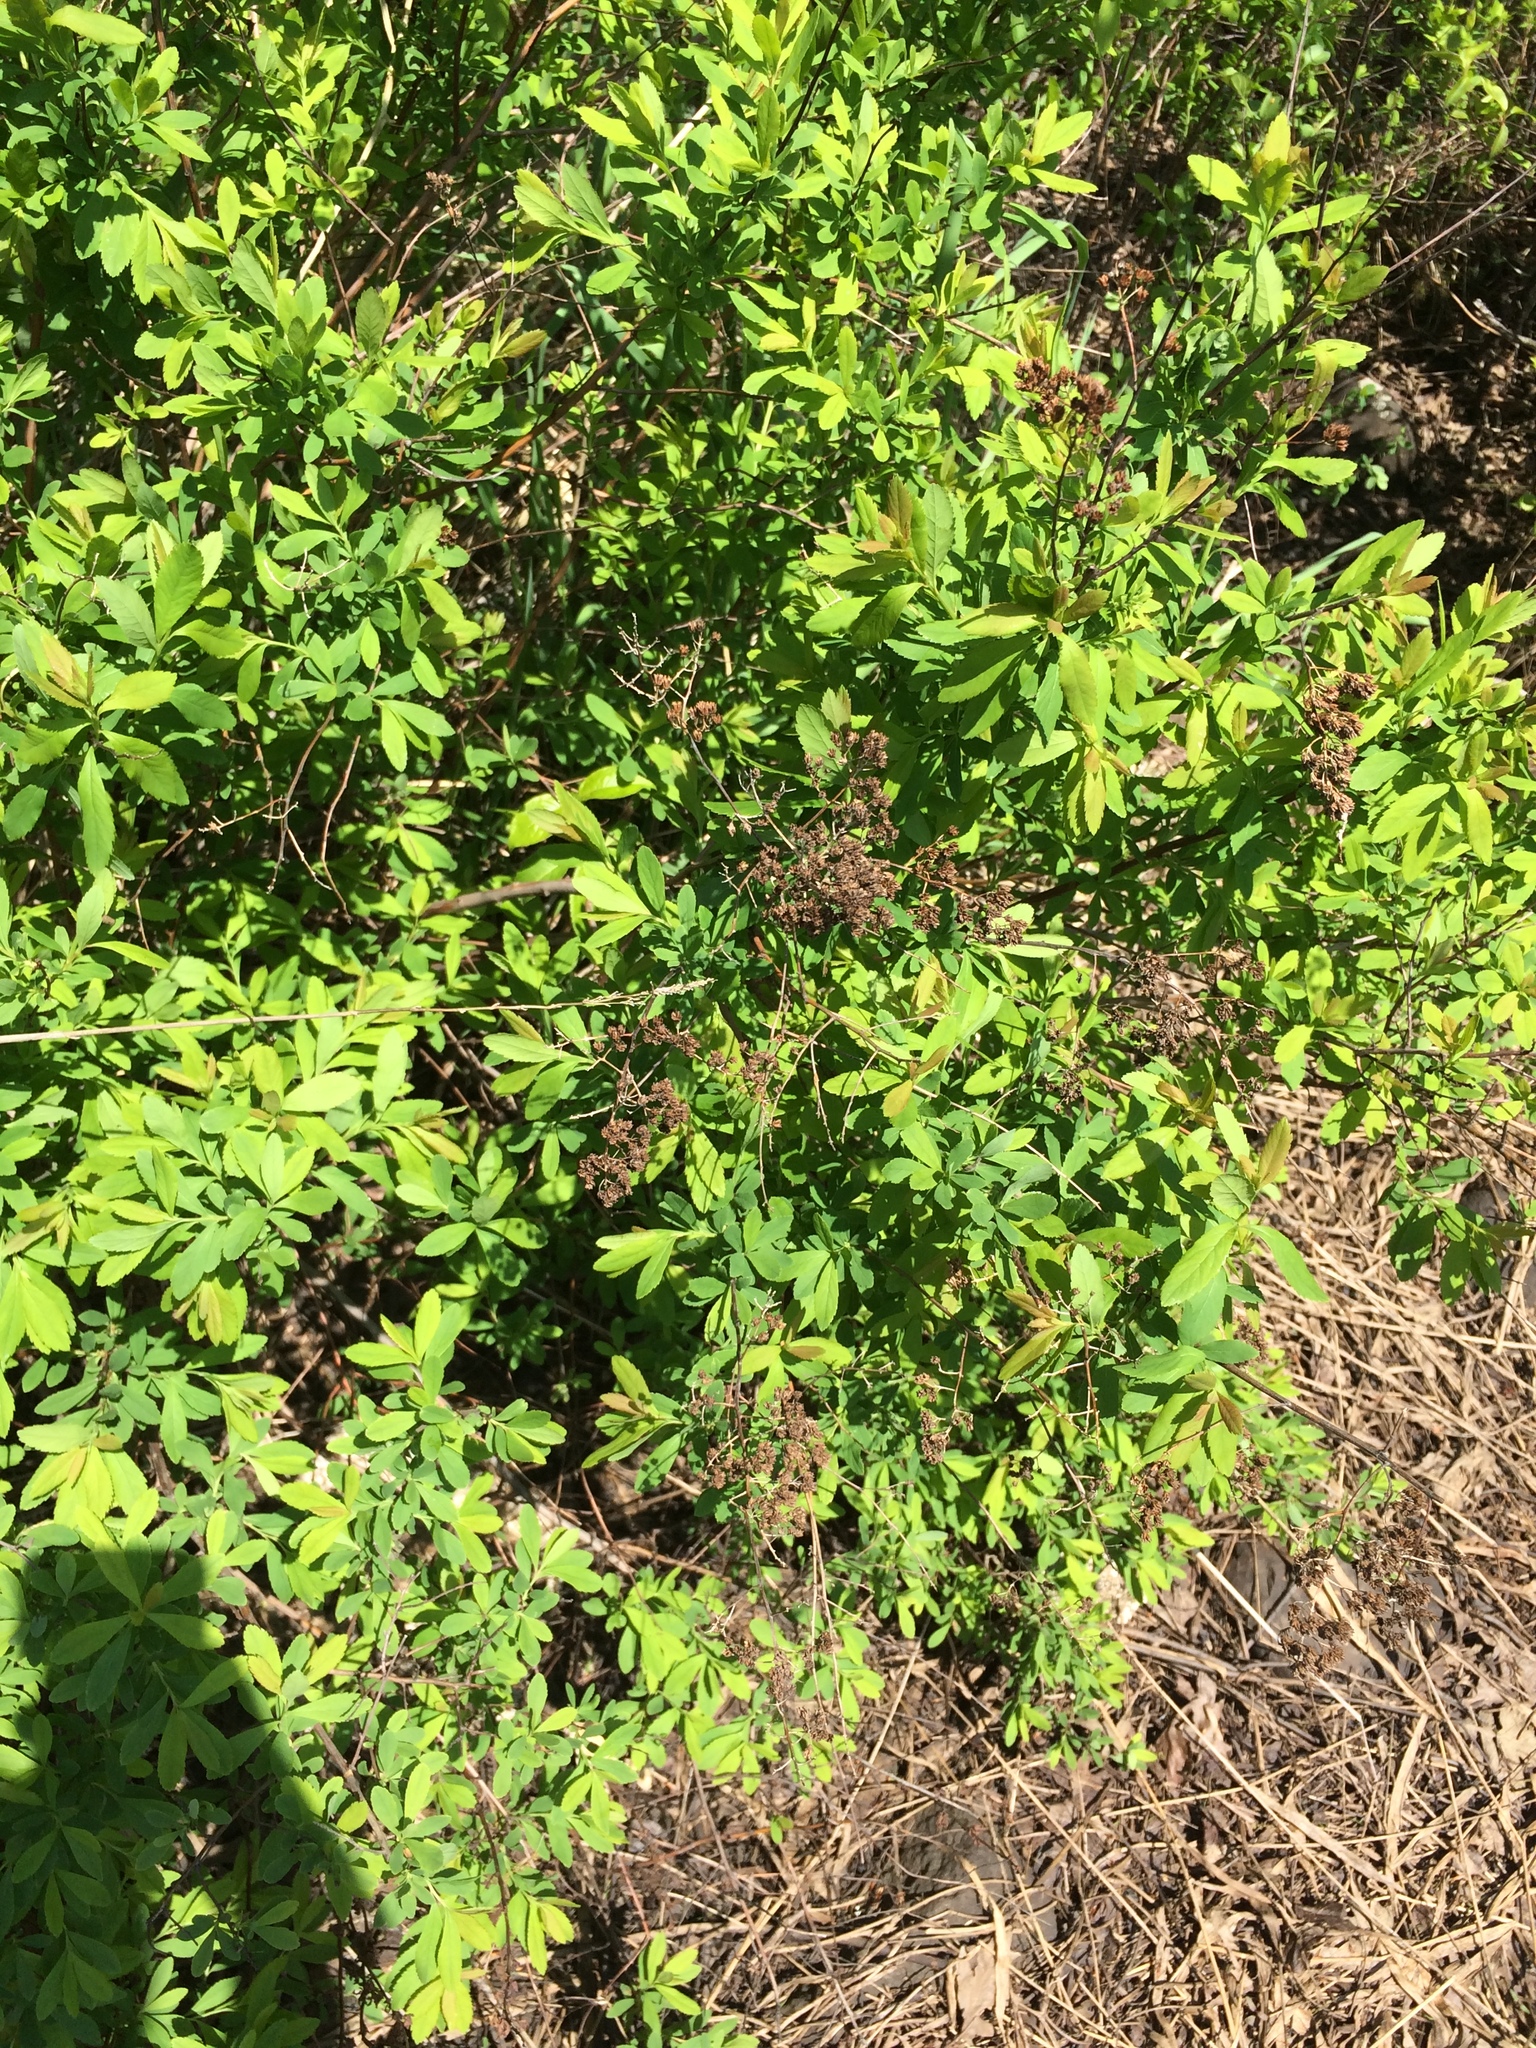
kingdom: Plantae
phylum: Tracheophyta
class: Magnoliopsida
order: Rosales
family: Rosaceae
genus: Spiraea
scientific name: Spiraea alba
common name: Pale bridewort
